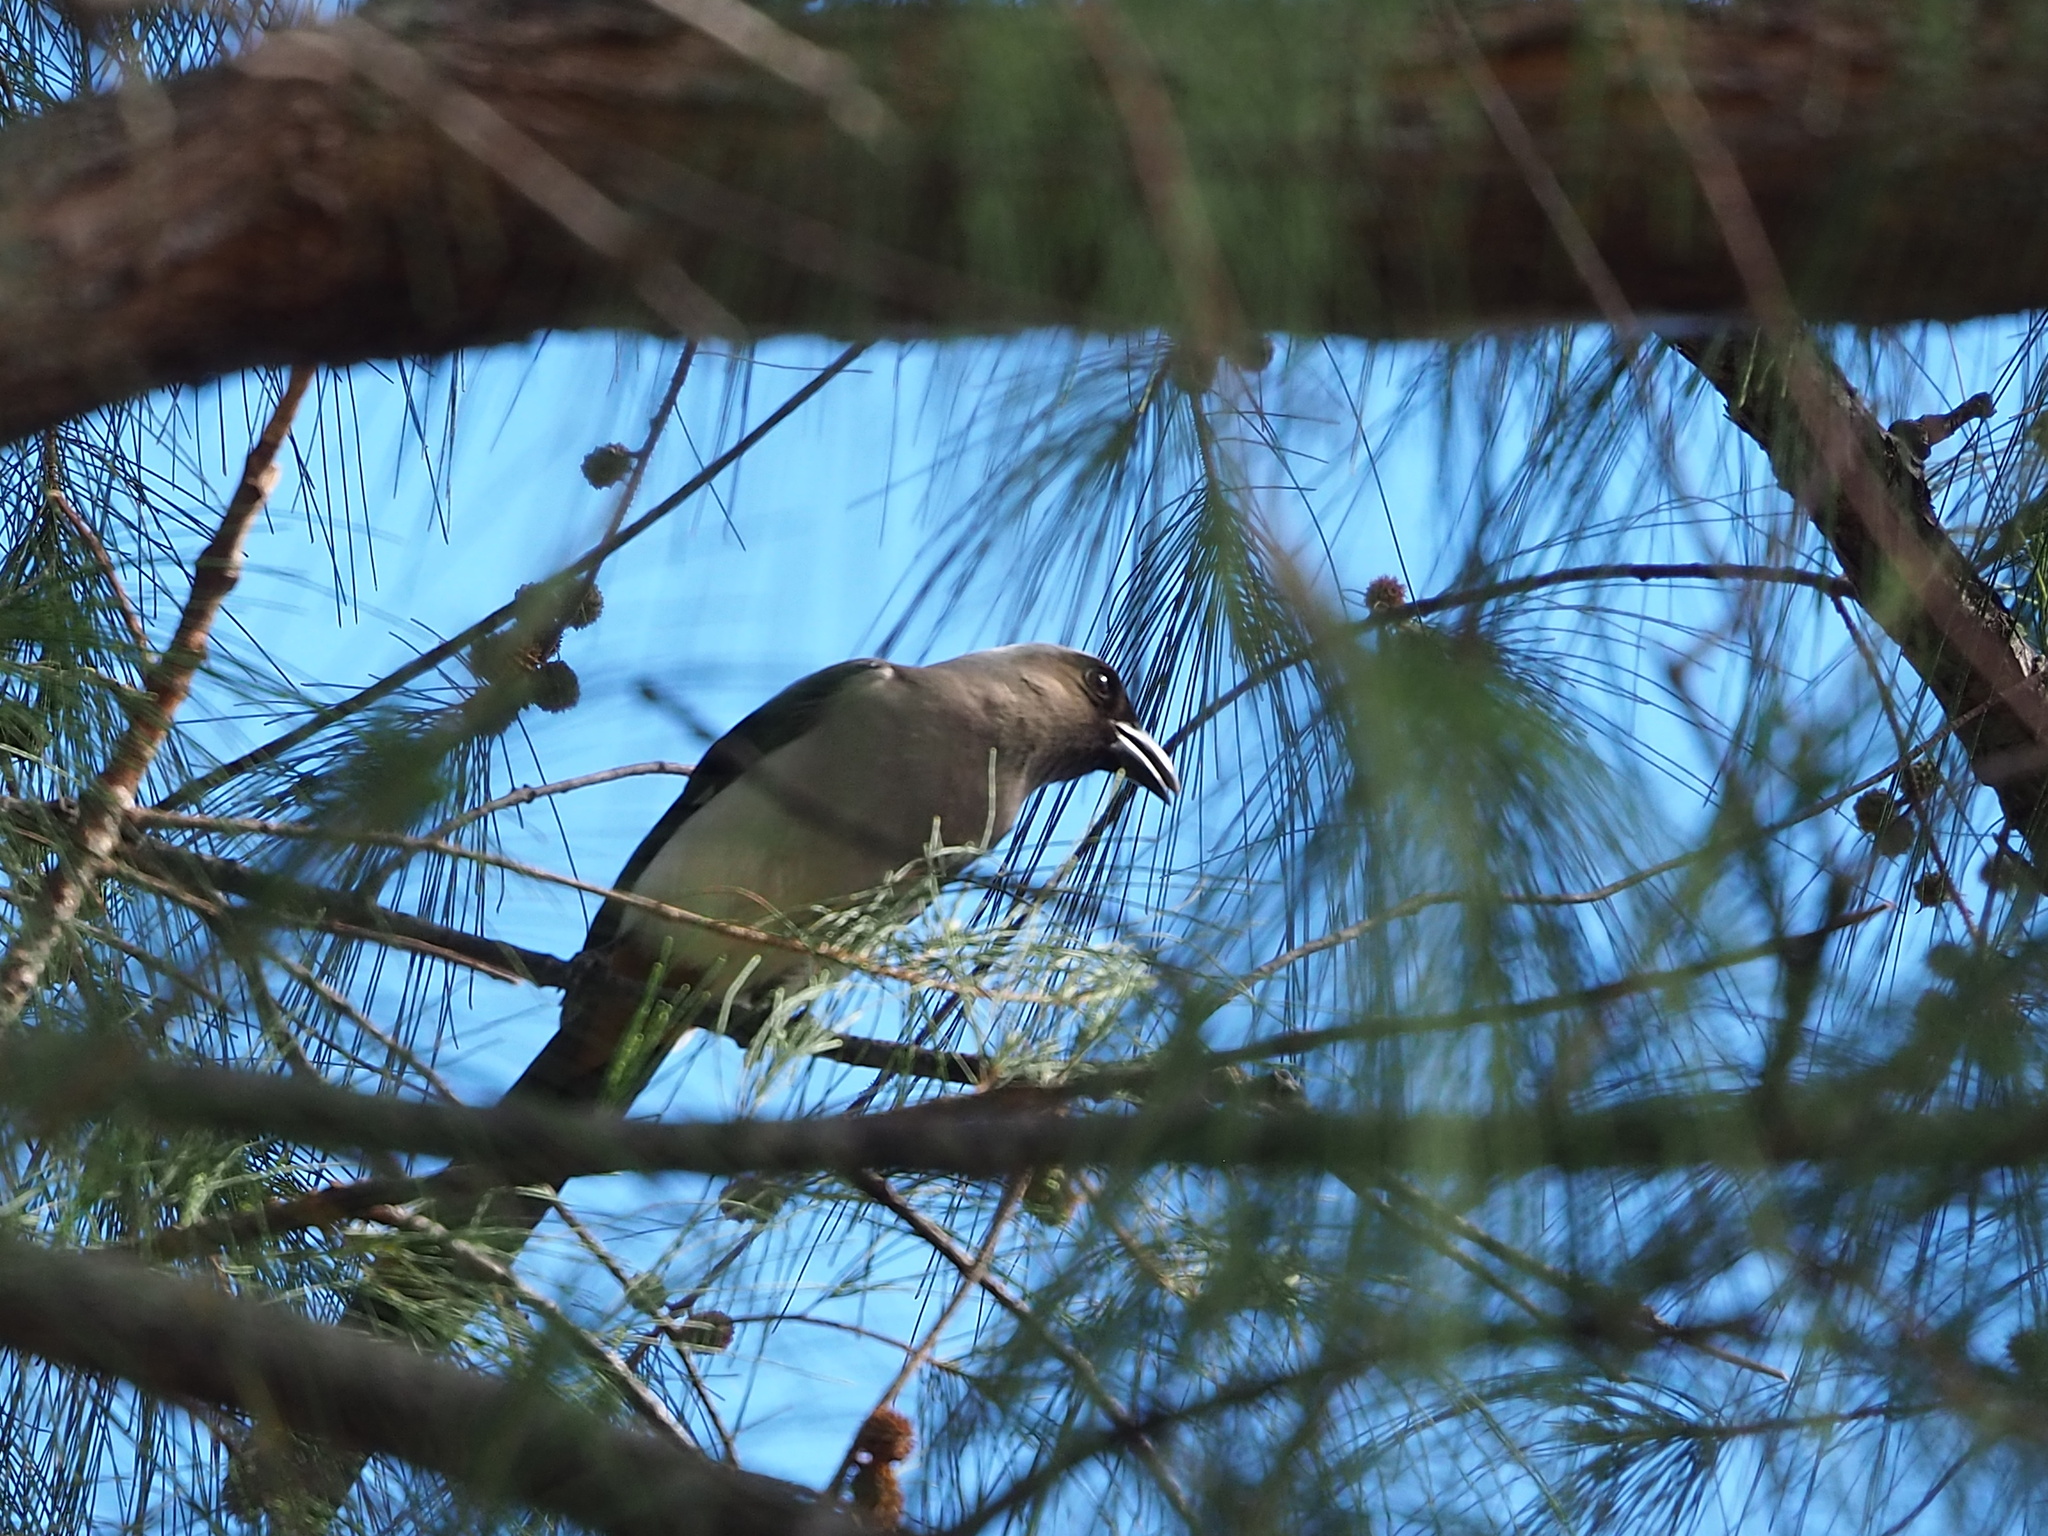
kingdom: Animalia
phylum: Chordata
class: Aves
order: Passeriformes
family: Corvidae
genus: Dendrocitta
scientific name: Dendrocitta formosae
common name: Grey treepie
